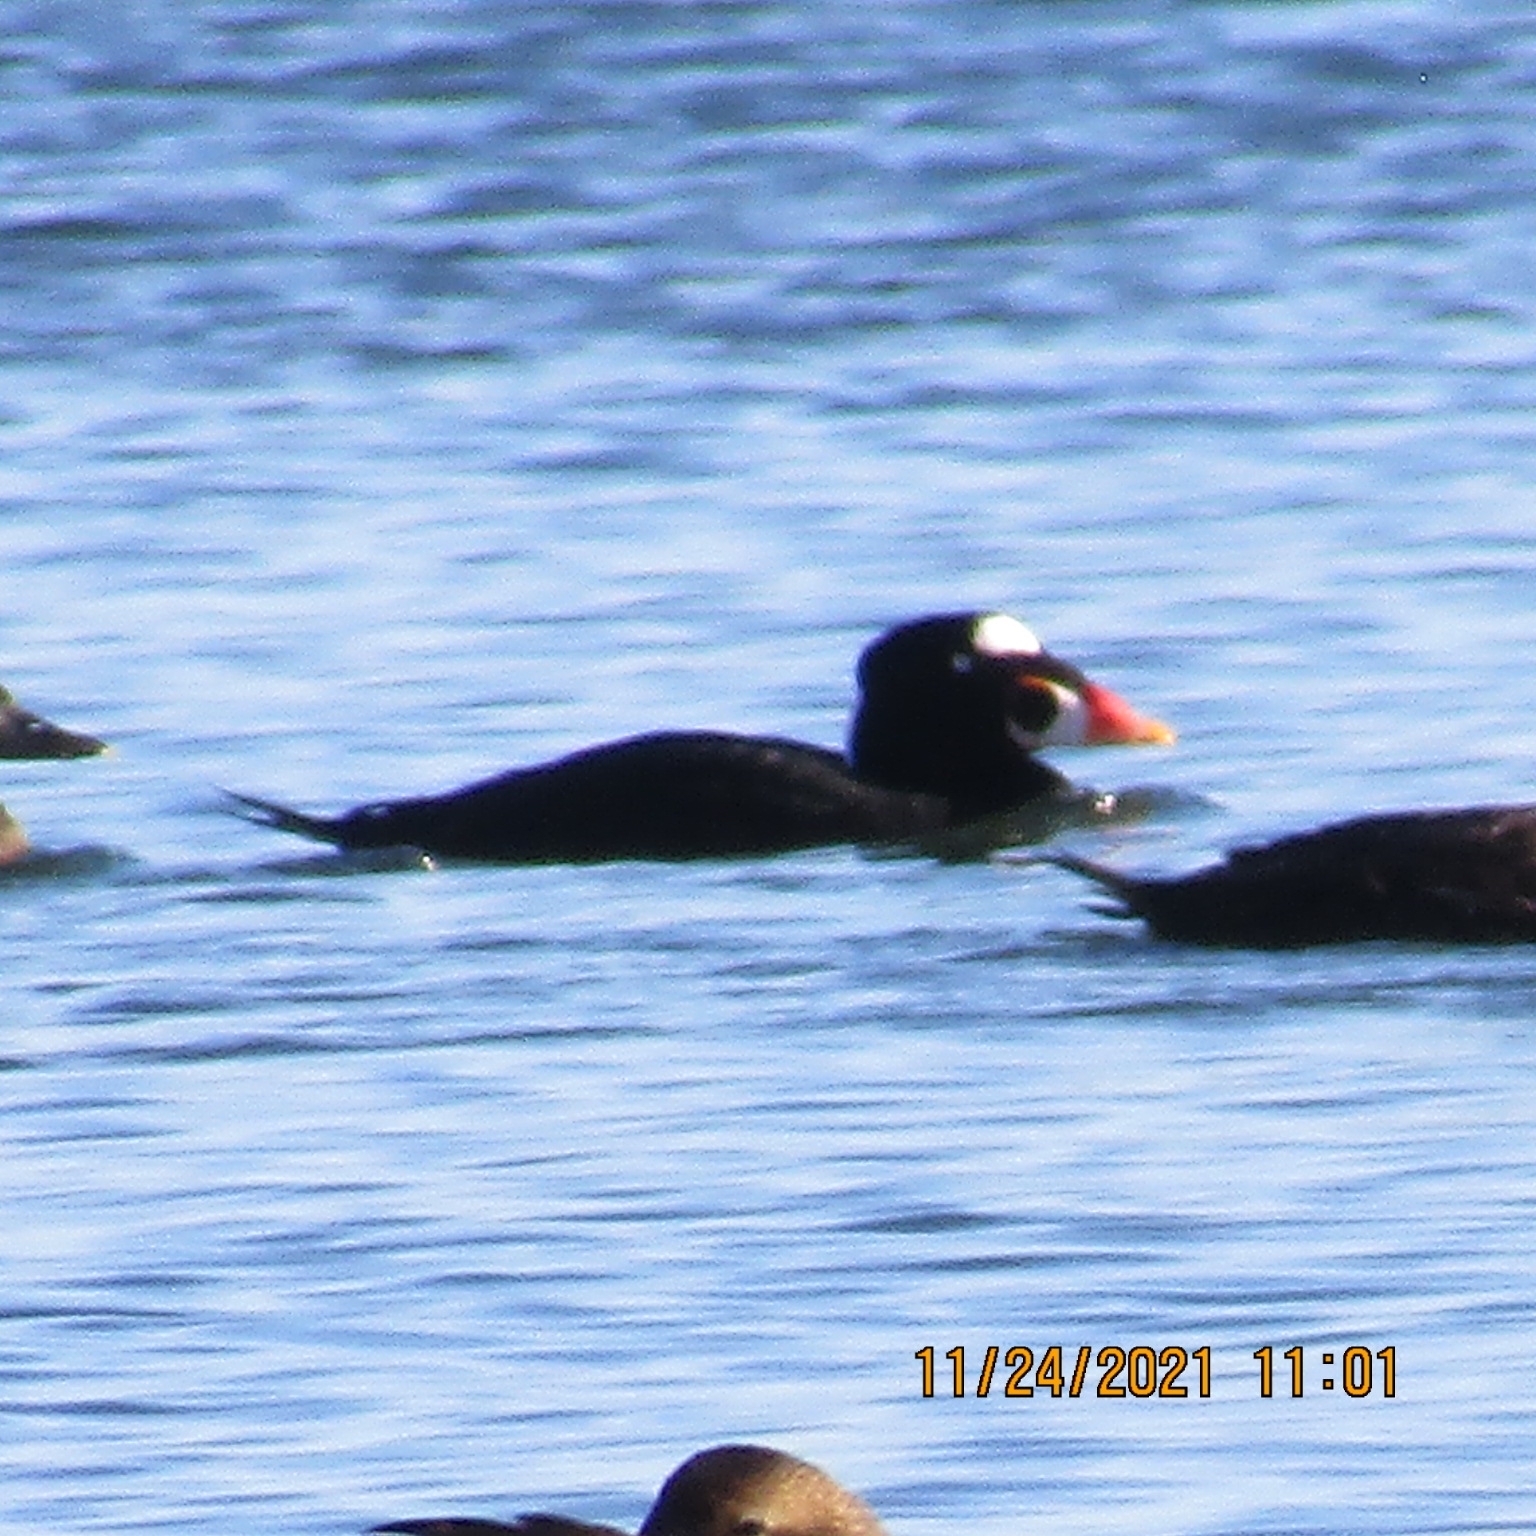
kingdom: Animalia
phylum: Chordata
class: Aves
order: Anseriformes
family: Anatidae
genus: Melanitta
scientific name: Melanitta perspicillata
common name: Surf scoter
